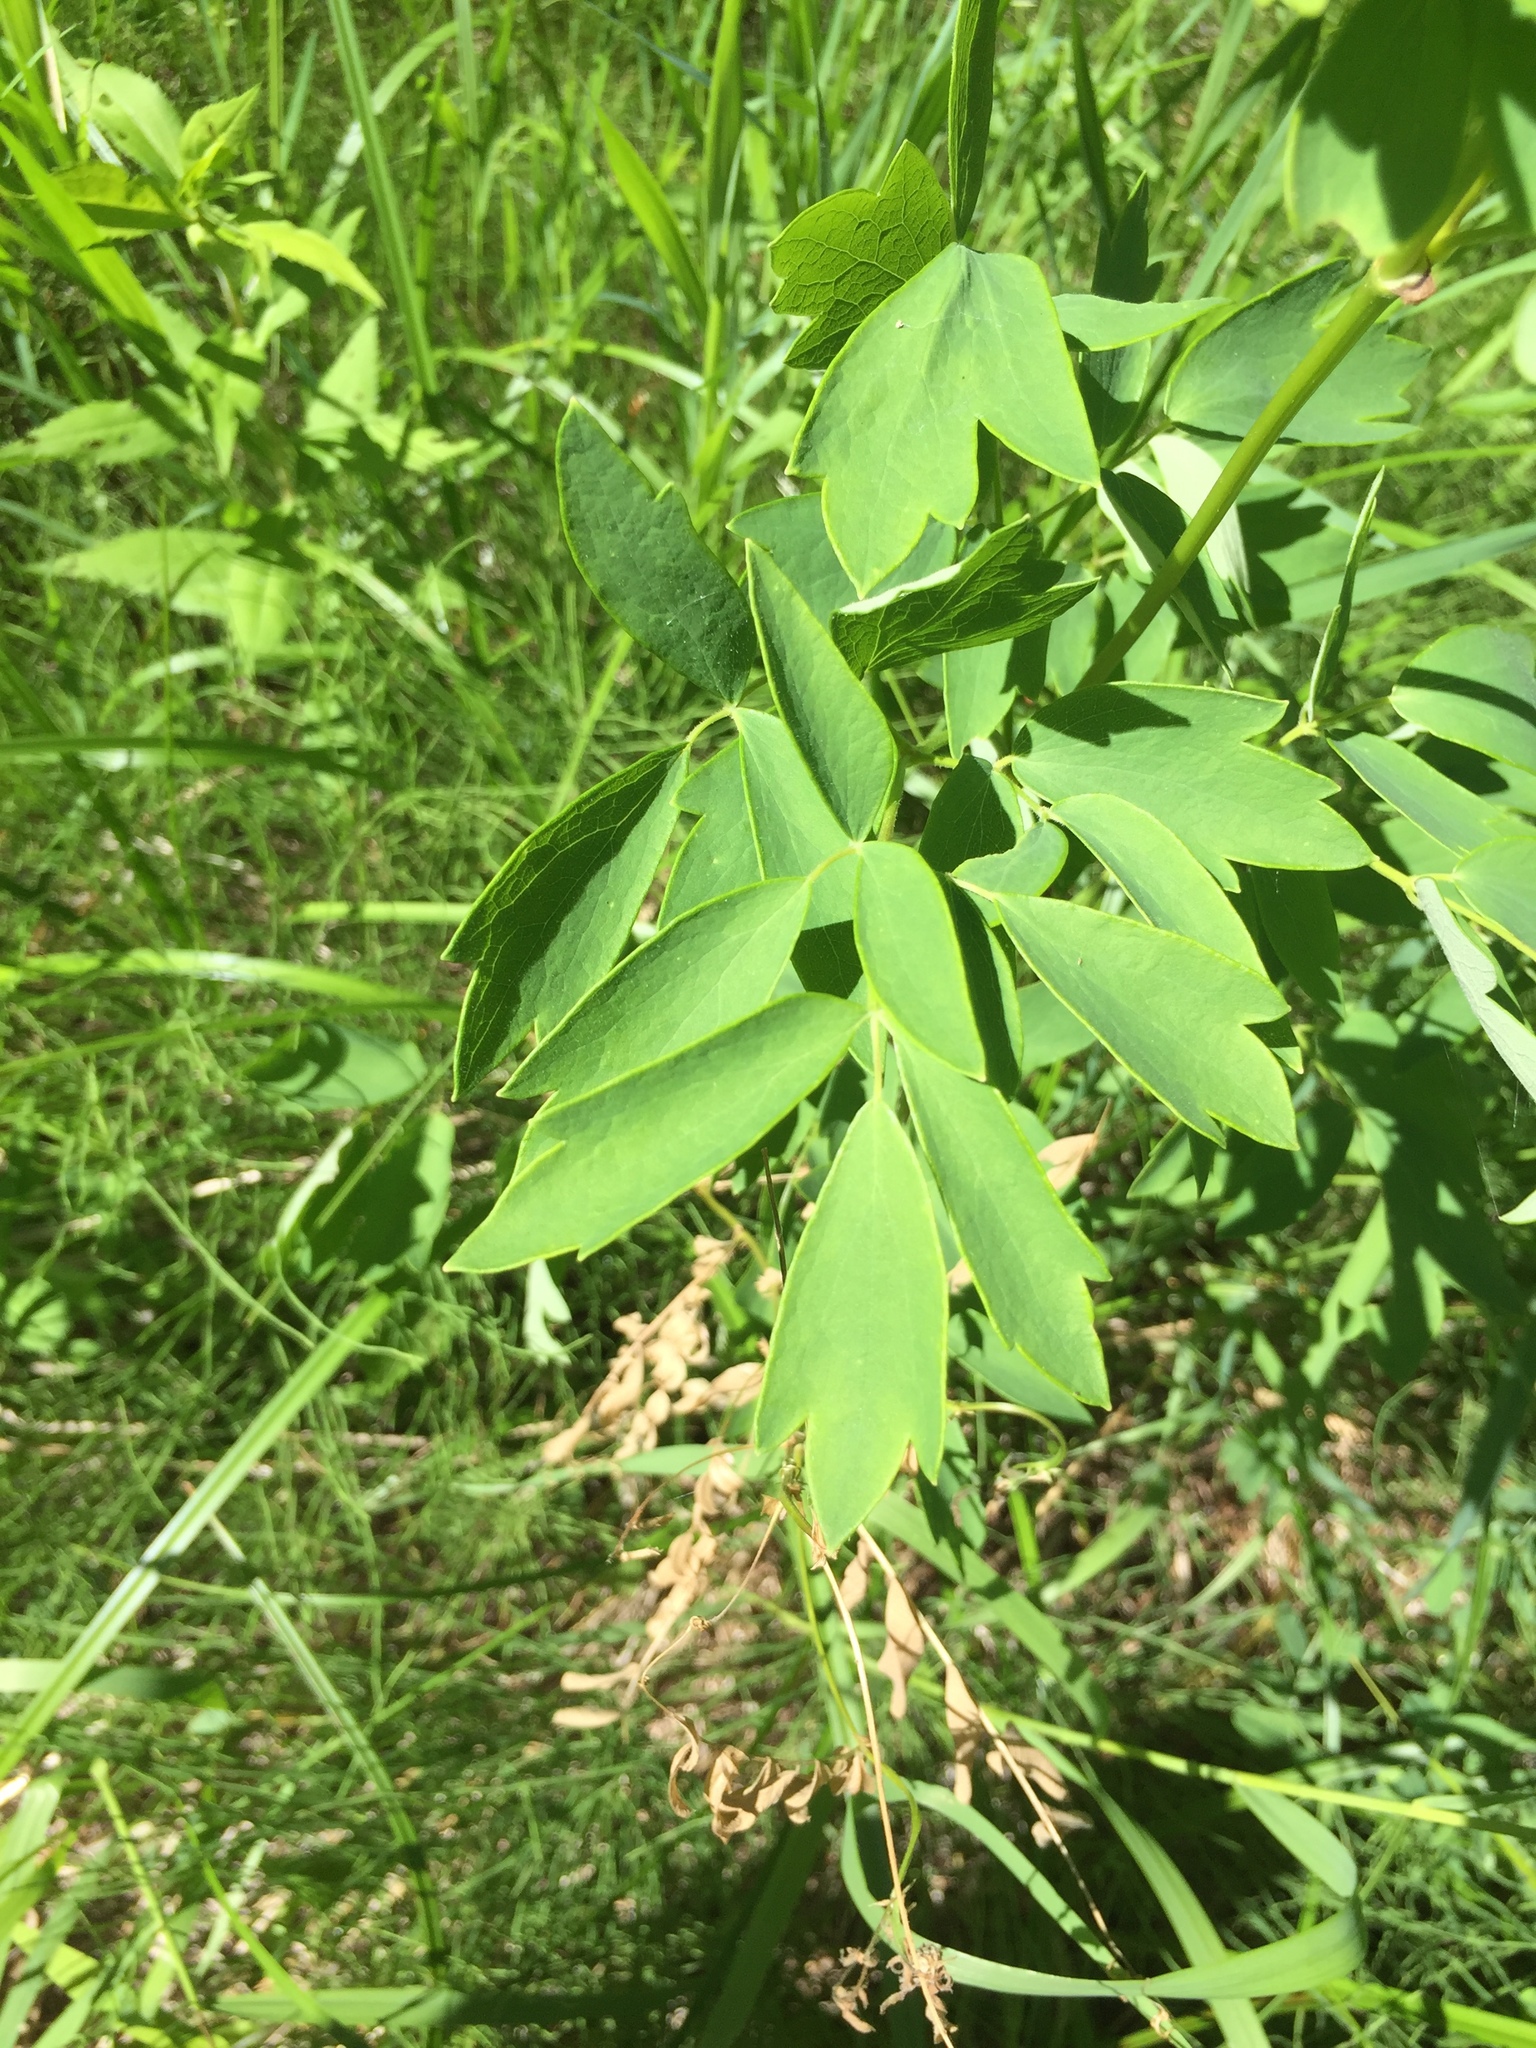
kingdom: Plantae
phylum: Tracheophyta
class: Magnoliopsida
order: Ranunculales
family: Ranunculaceae
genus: Thalictrum
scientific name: Thalictrum dasycarpum
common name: Purple meadow-rue
